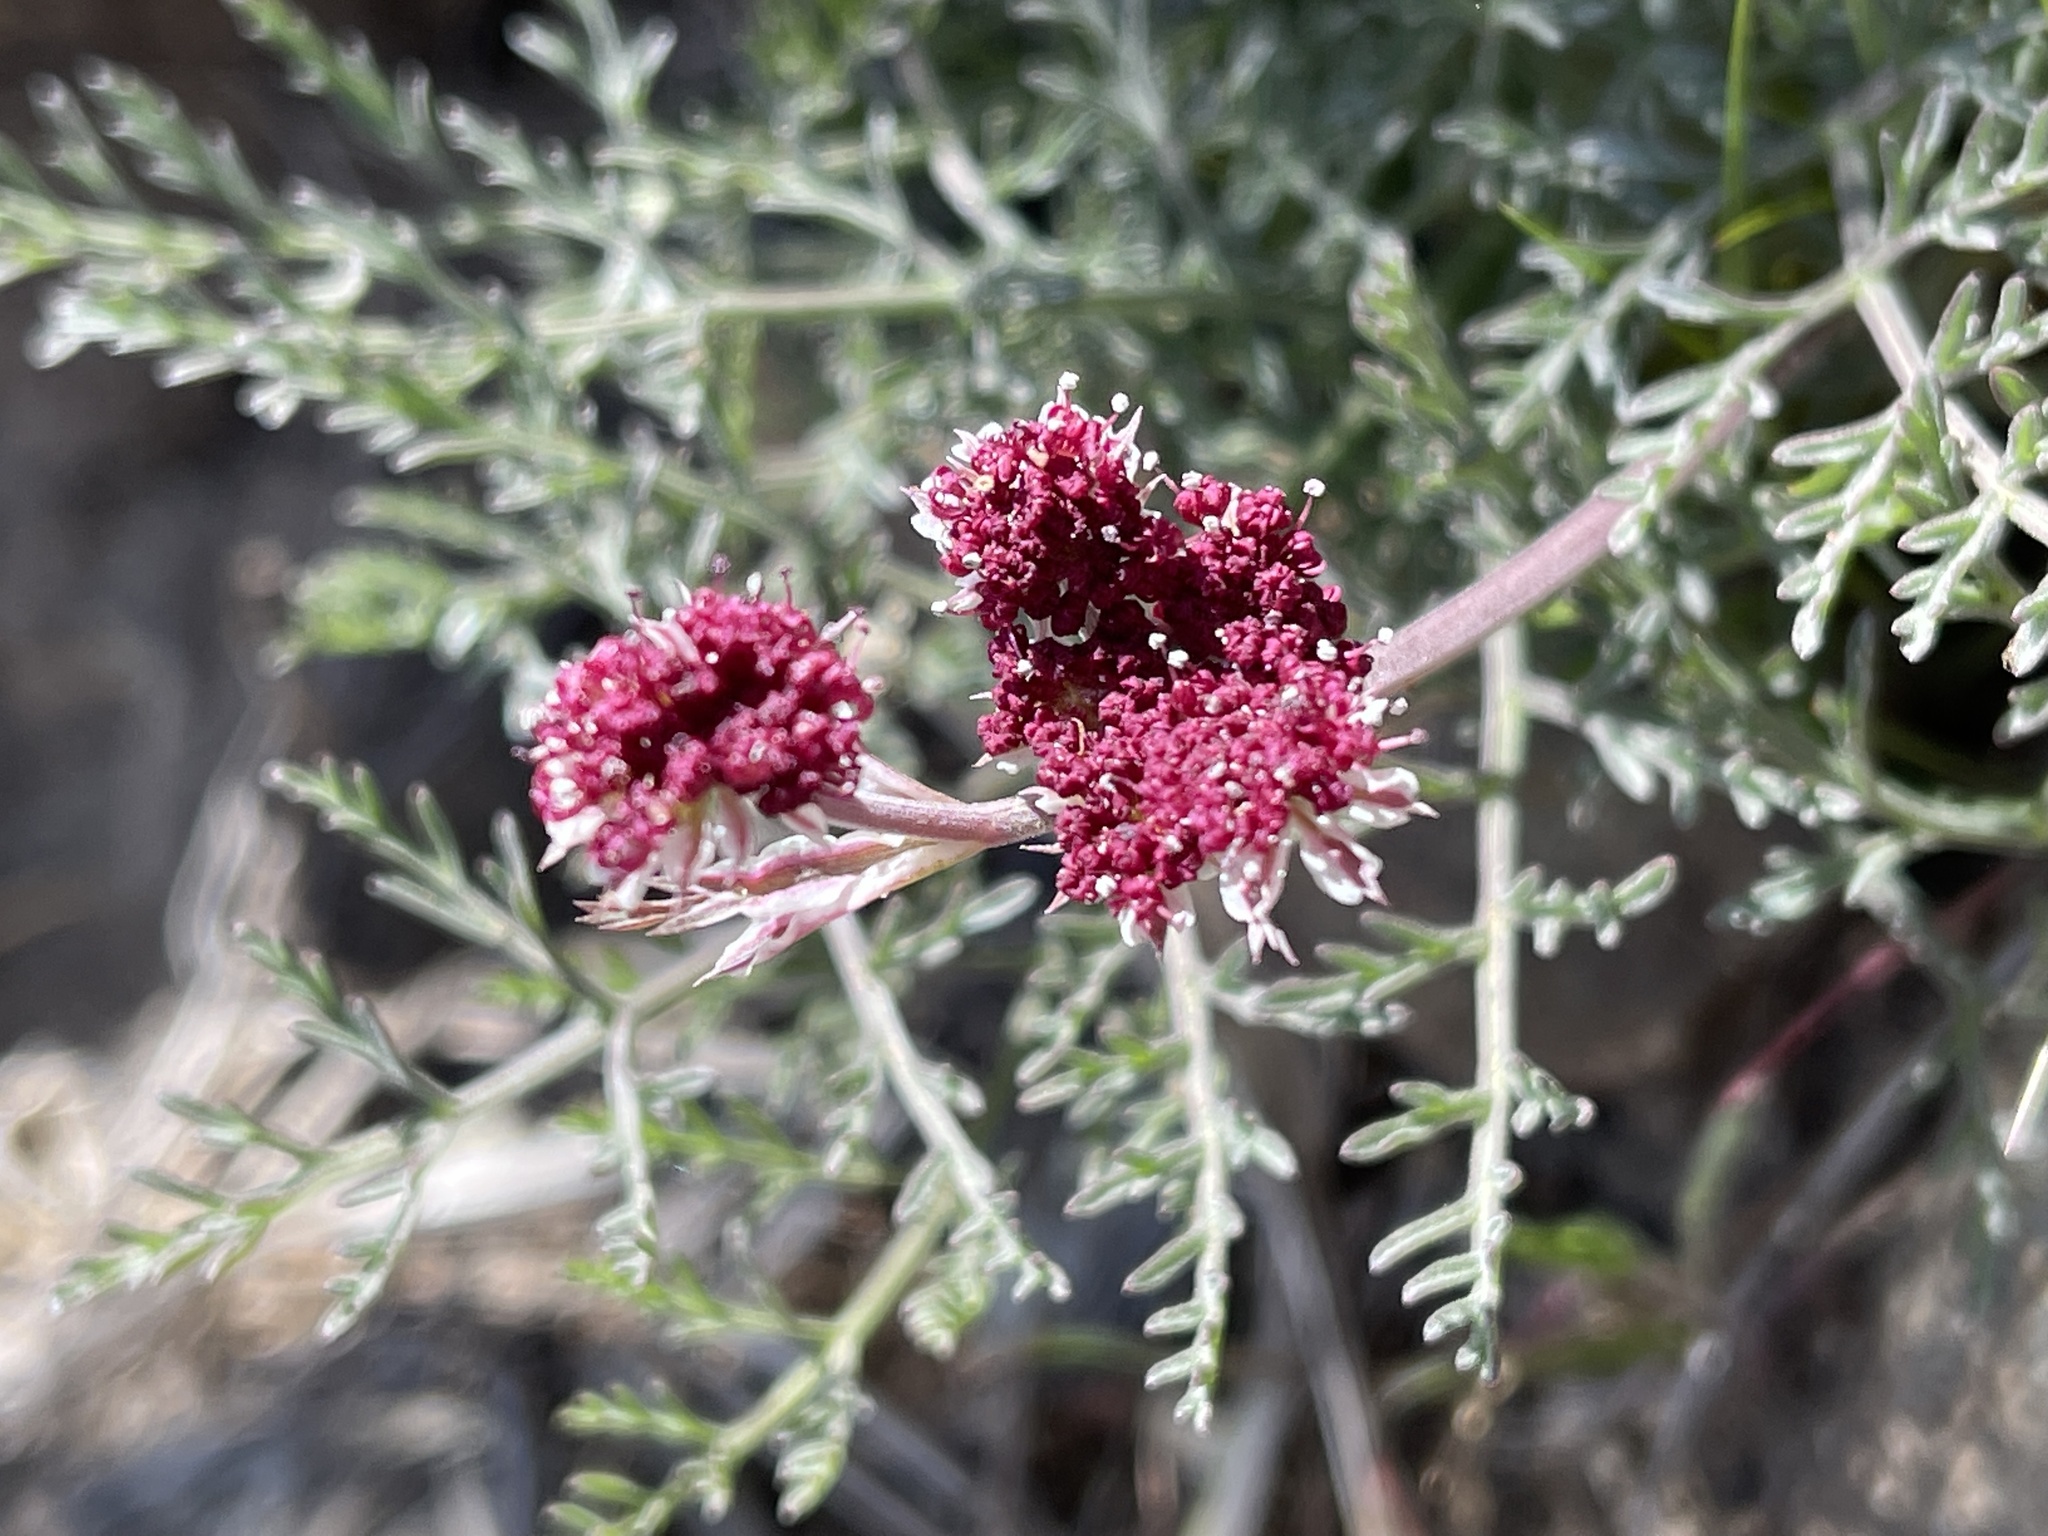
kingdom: Plantae
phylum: Tracheophyta
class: Magnoliopsida
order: Apiales
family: Apiaceae
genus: Lomatium
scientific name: Lomatium hooveri
